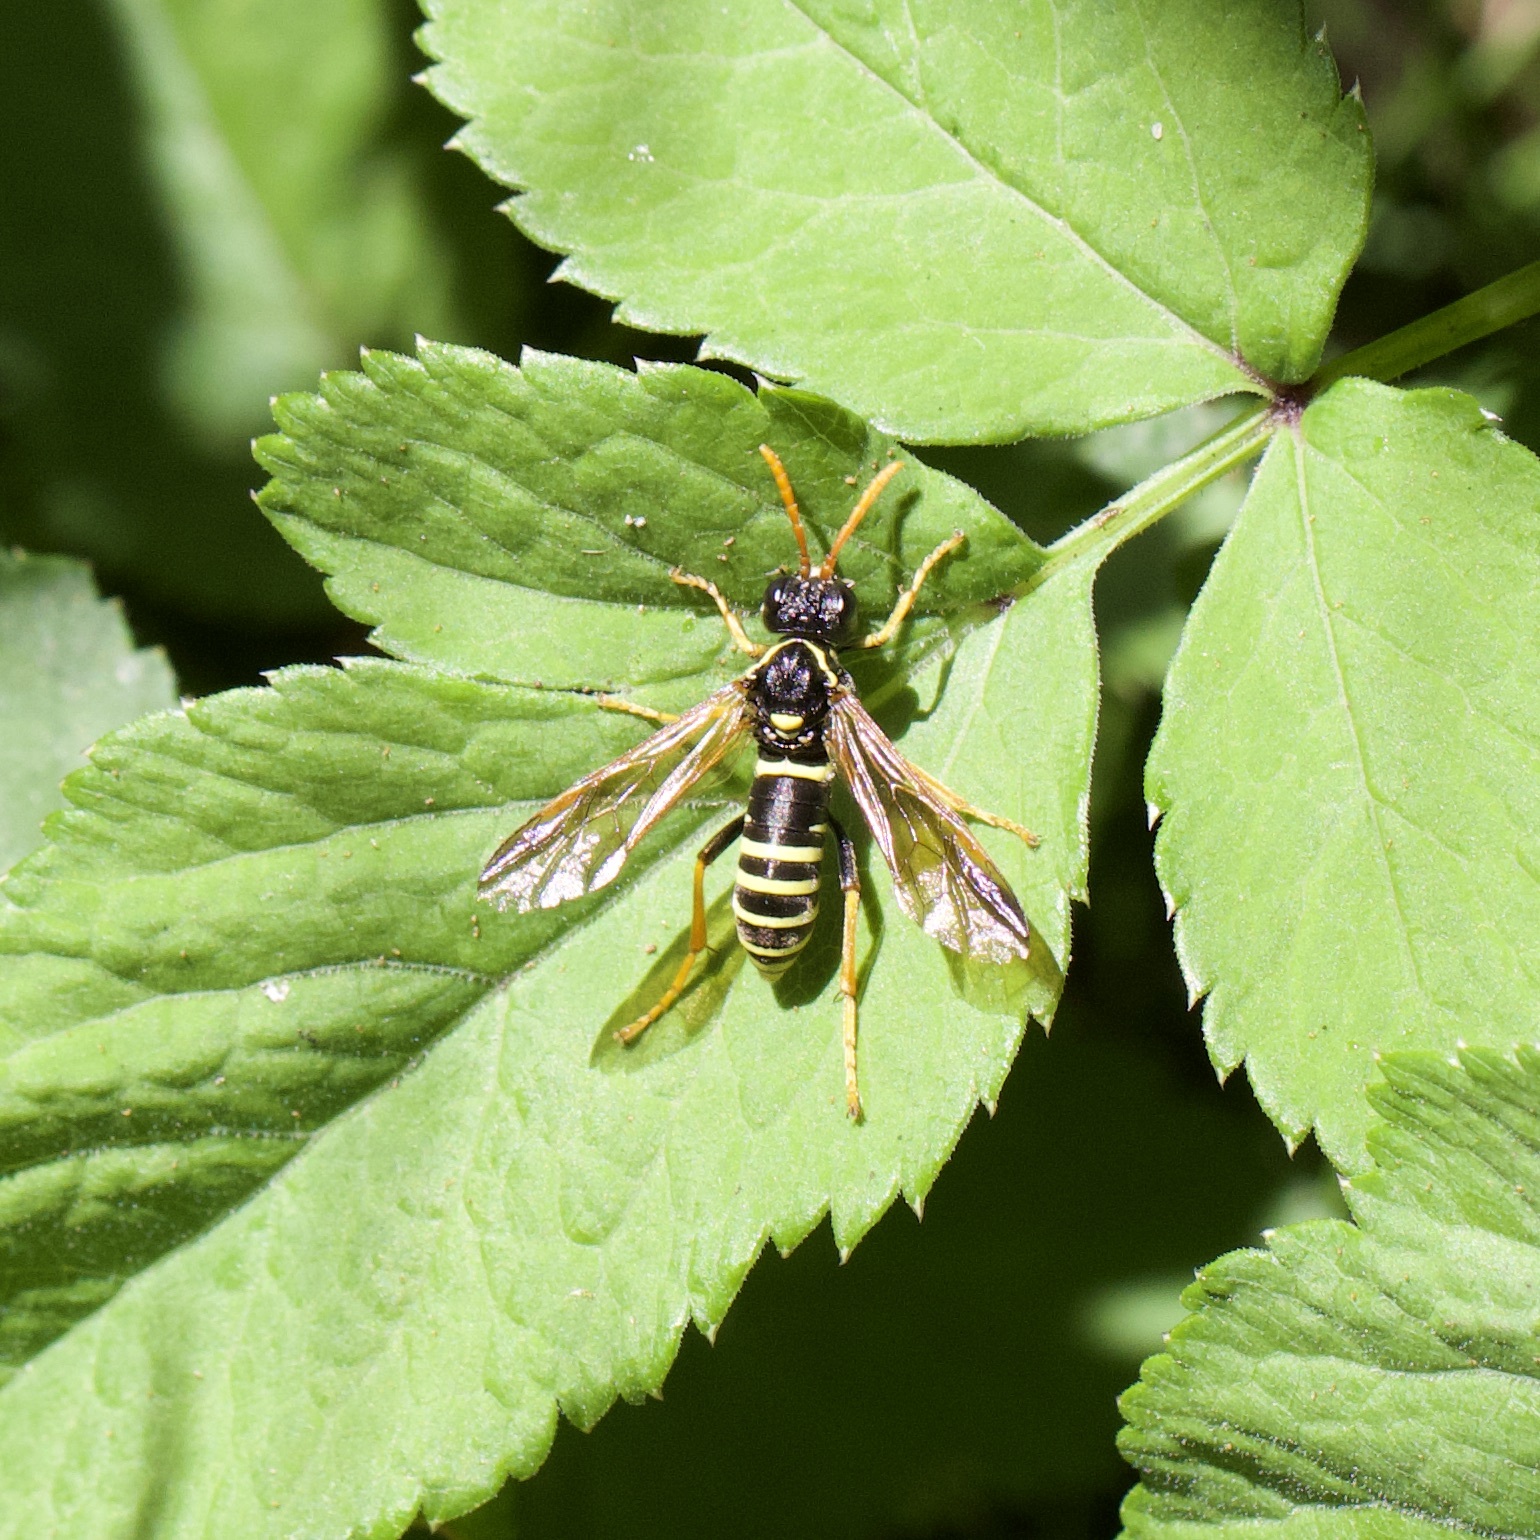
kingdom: Animalia
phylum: Arthropoda
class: Insecta
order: Hymenoptera
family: Tenthredinidae
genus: Tenthredo
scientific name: Tenthredo scrophulariae
